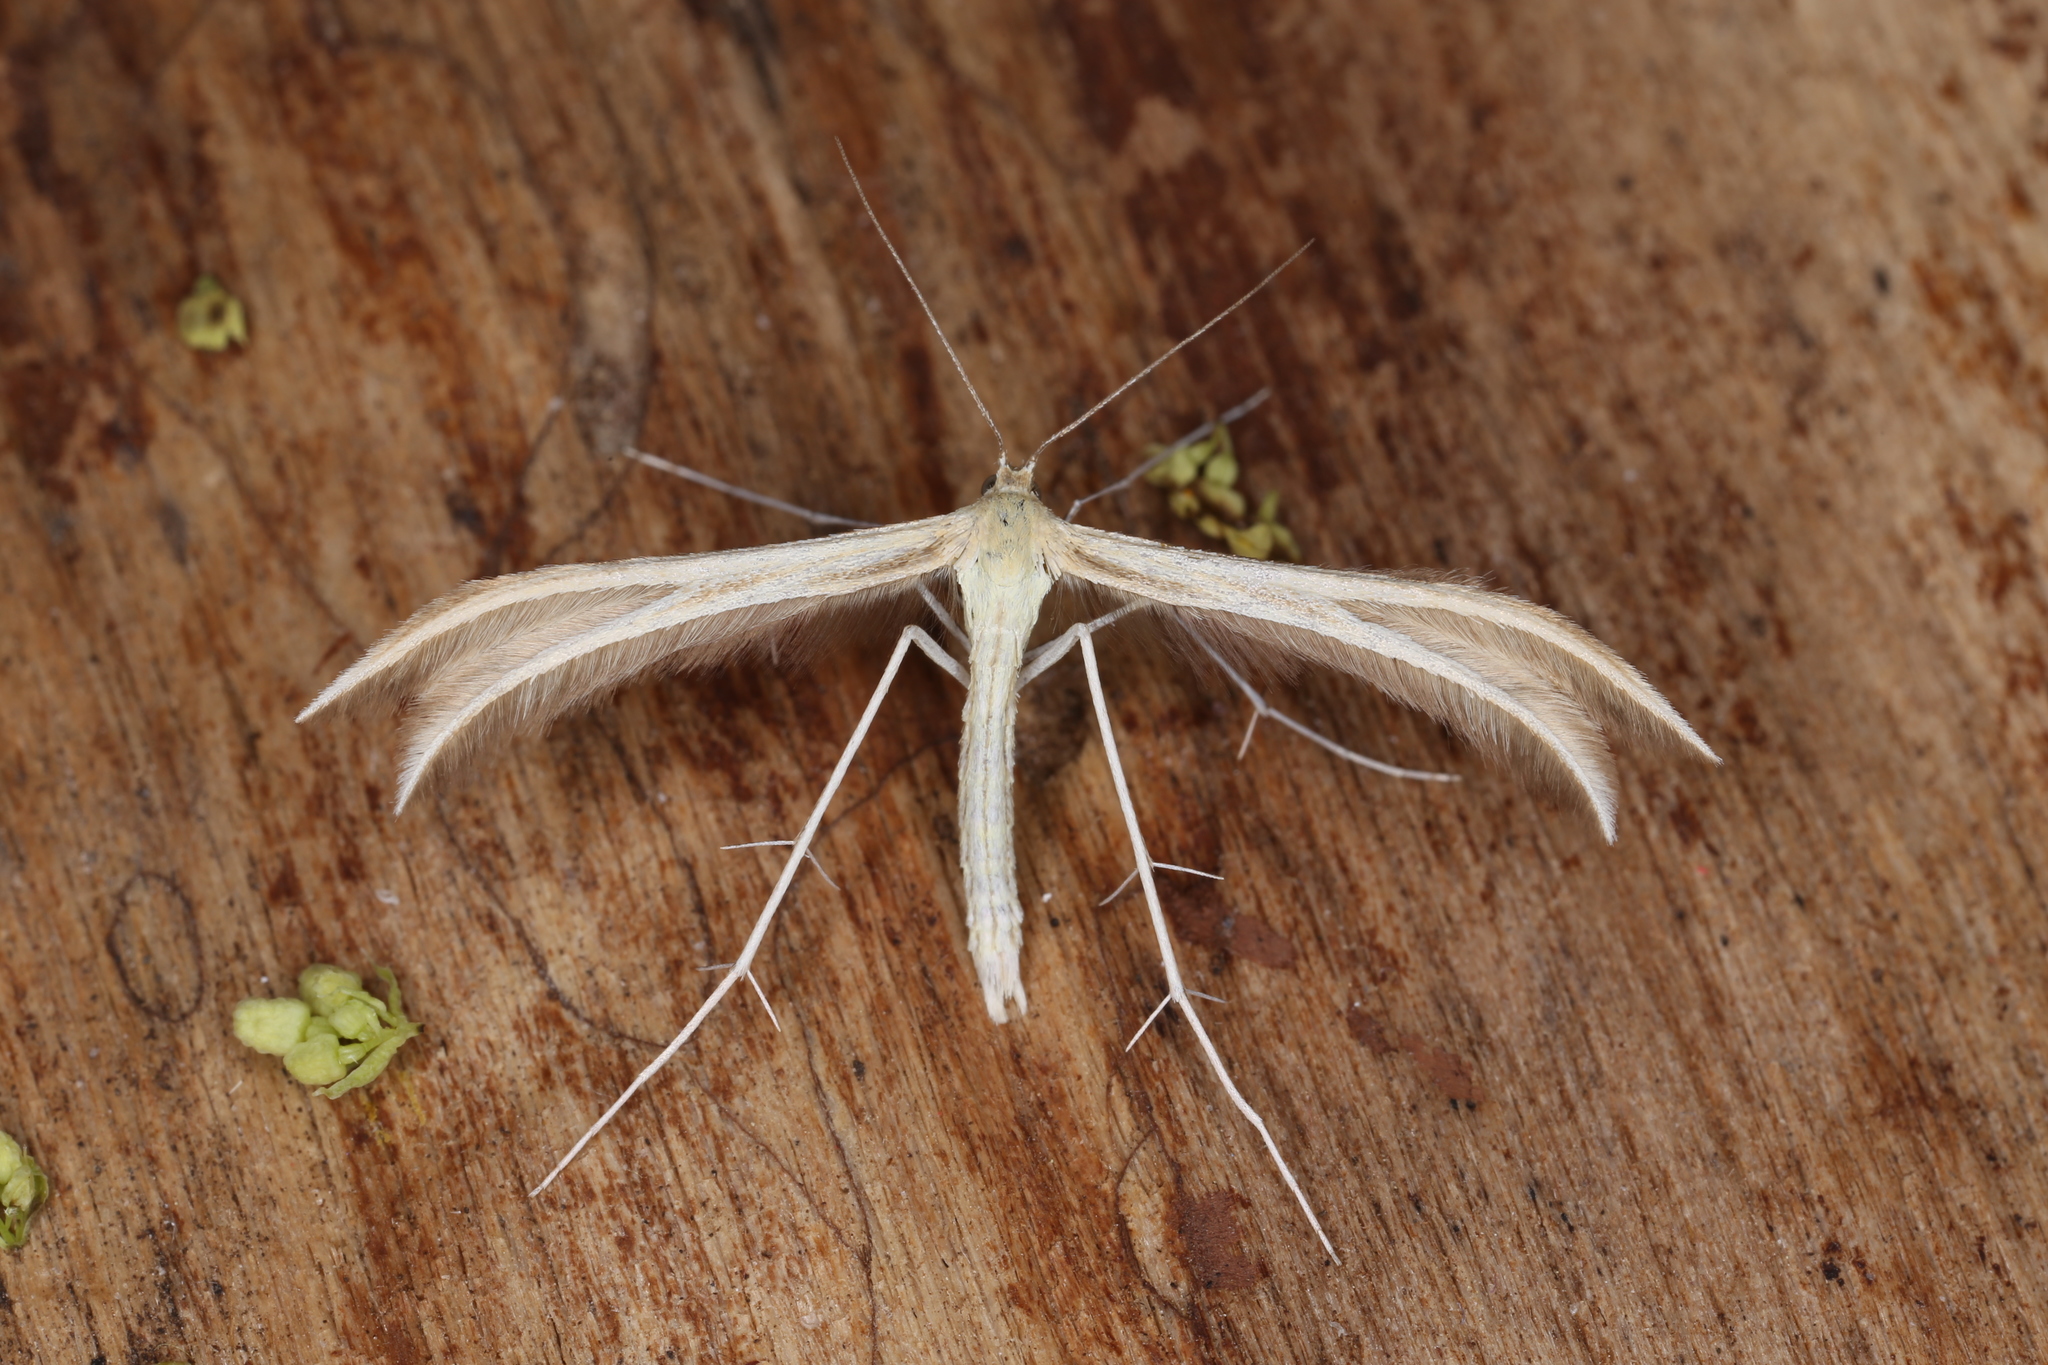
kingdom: Animalia
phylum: Arthropoda
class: Insecta
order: Lepidoptera
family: Pterophoridae
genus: Merrifieldia
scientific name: Merrifieldia baliodactylus
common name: Dingy white plume
